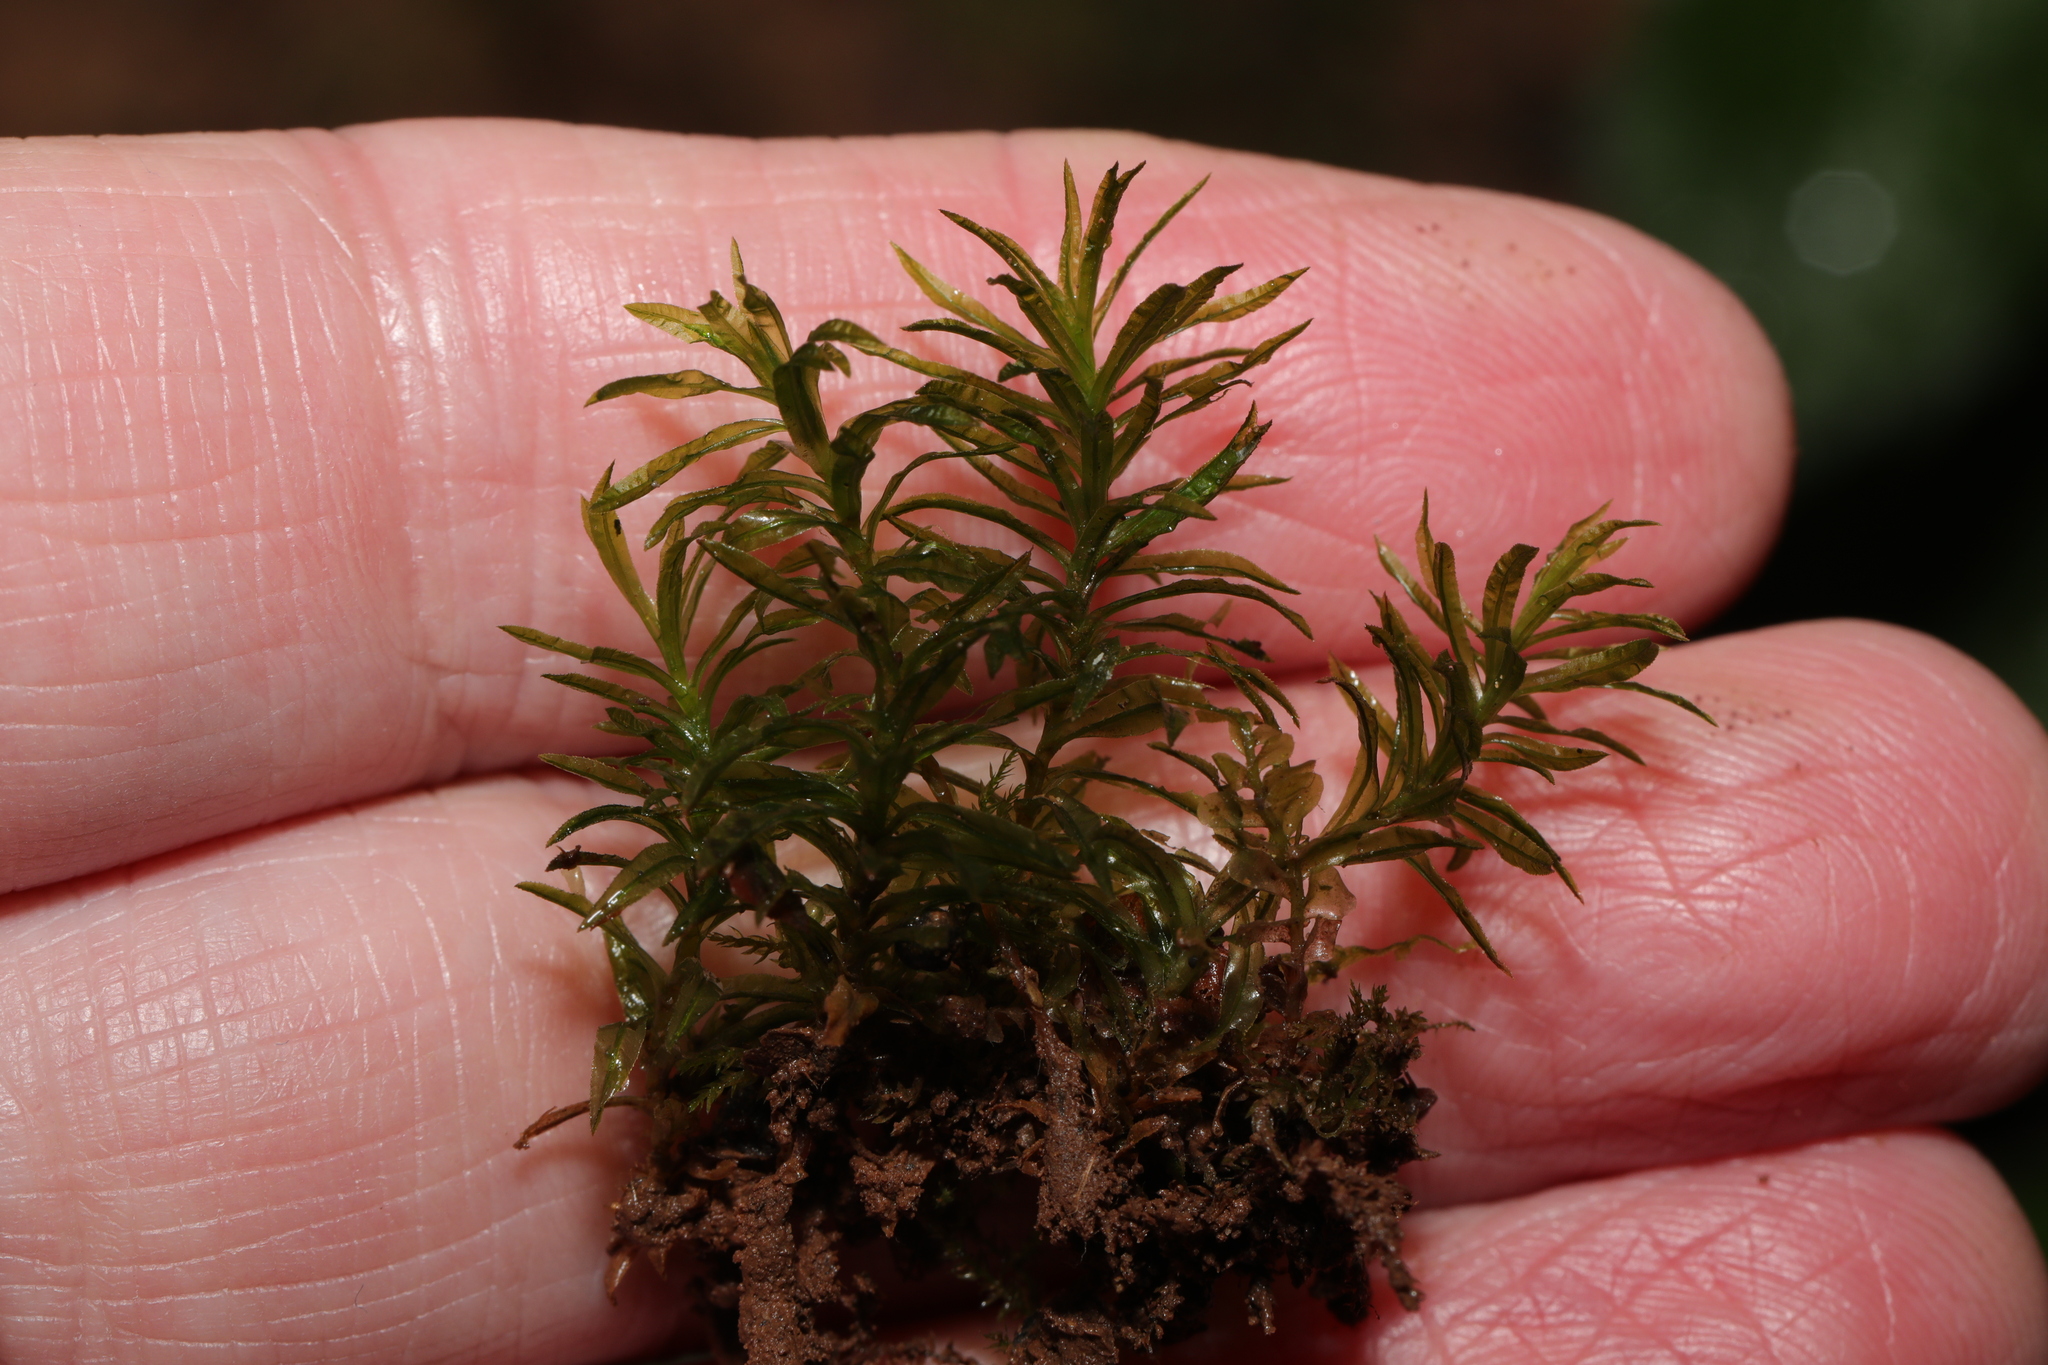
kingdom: Plantae
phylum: Bryophyta
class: Polytrichopsida
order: Polytrichales
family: Polytrichaceae
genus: Atrichum
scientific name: Atrichum undulatum
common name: Common smoothcap
